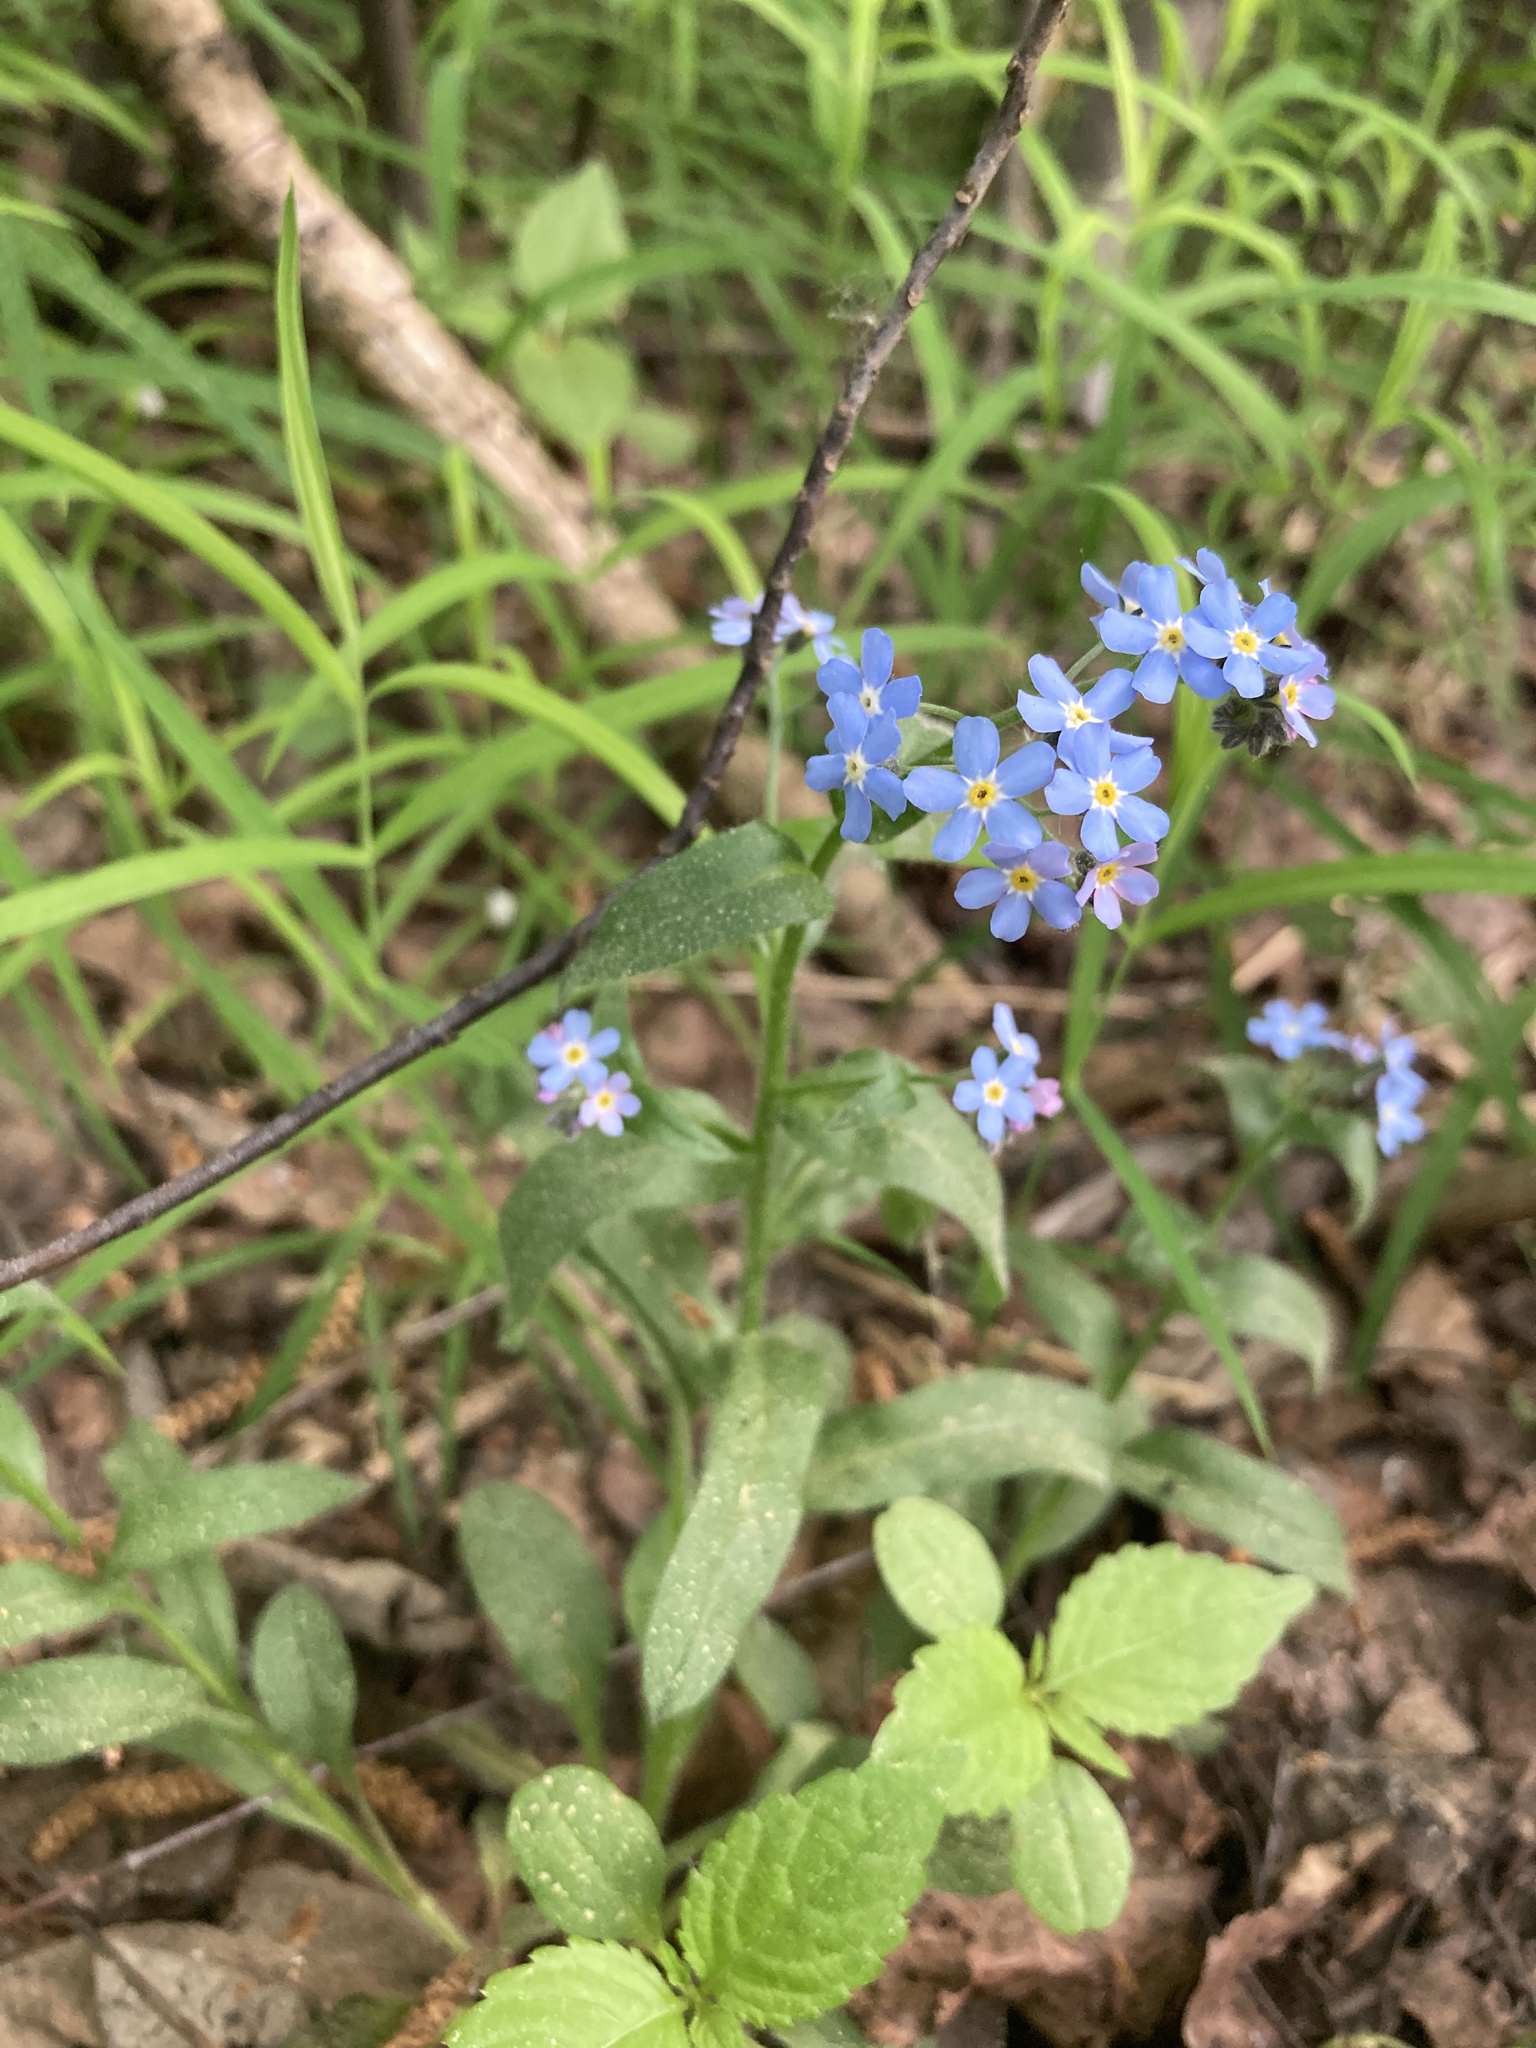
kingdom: Plantae
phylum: Tracheophyta
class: Magnoliopsida
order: Boraginales
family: Boraginaceae
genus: Myosotis
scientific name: Myosotis sylvatica
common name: Wood forget-me-not
